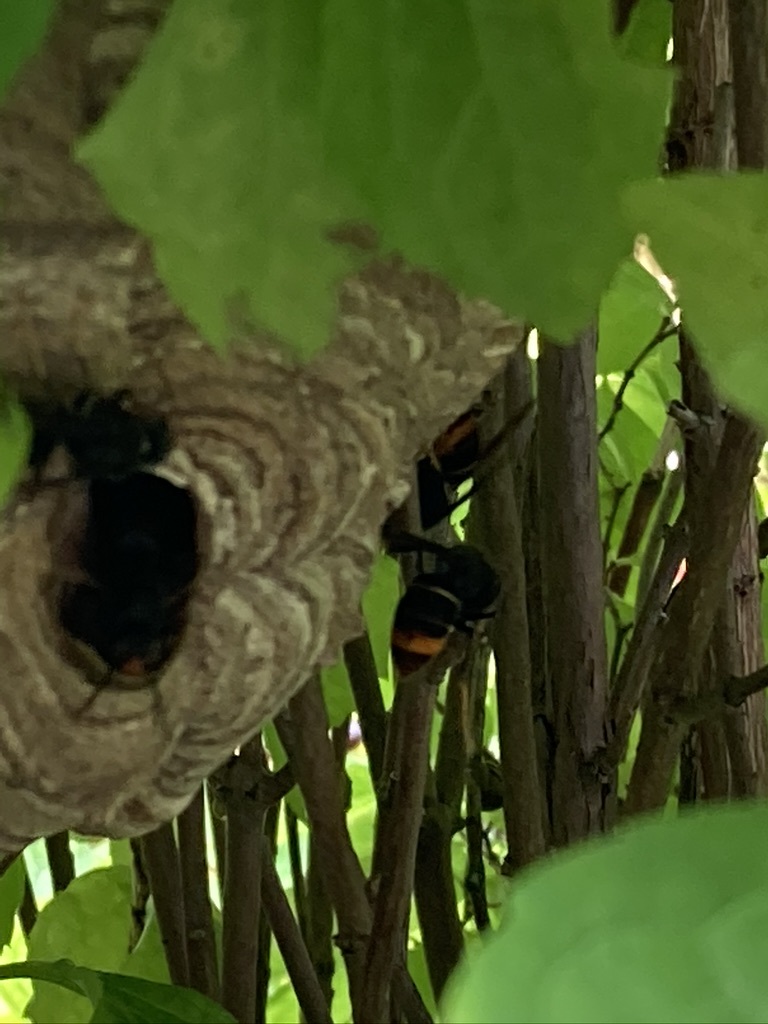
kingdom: Animalia
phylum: Arthropoda
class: Insecta
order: Hymenoptera
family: Vespidae
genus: Vespa
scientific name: Vespa velutina
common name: Asian hornet
